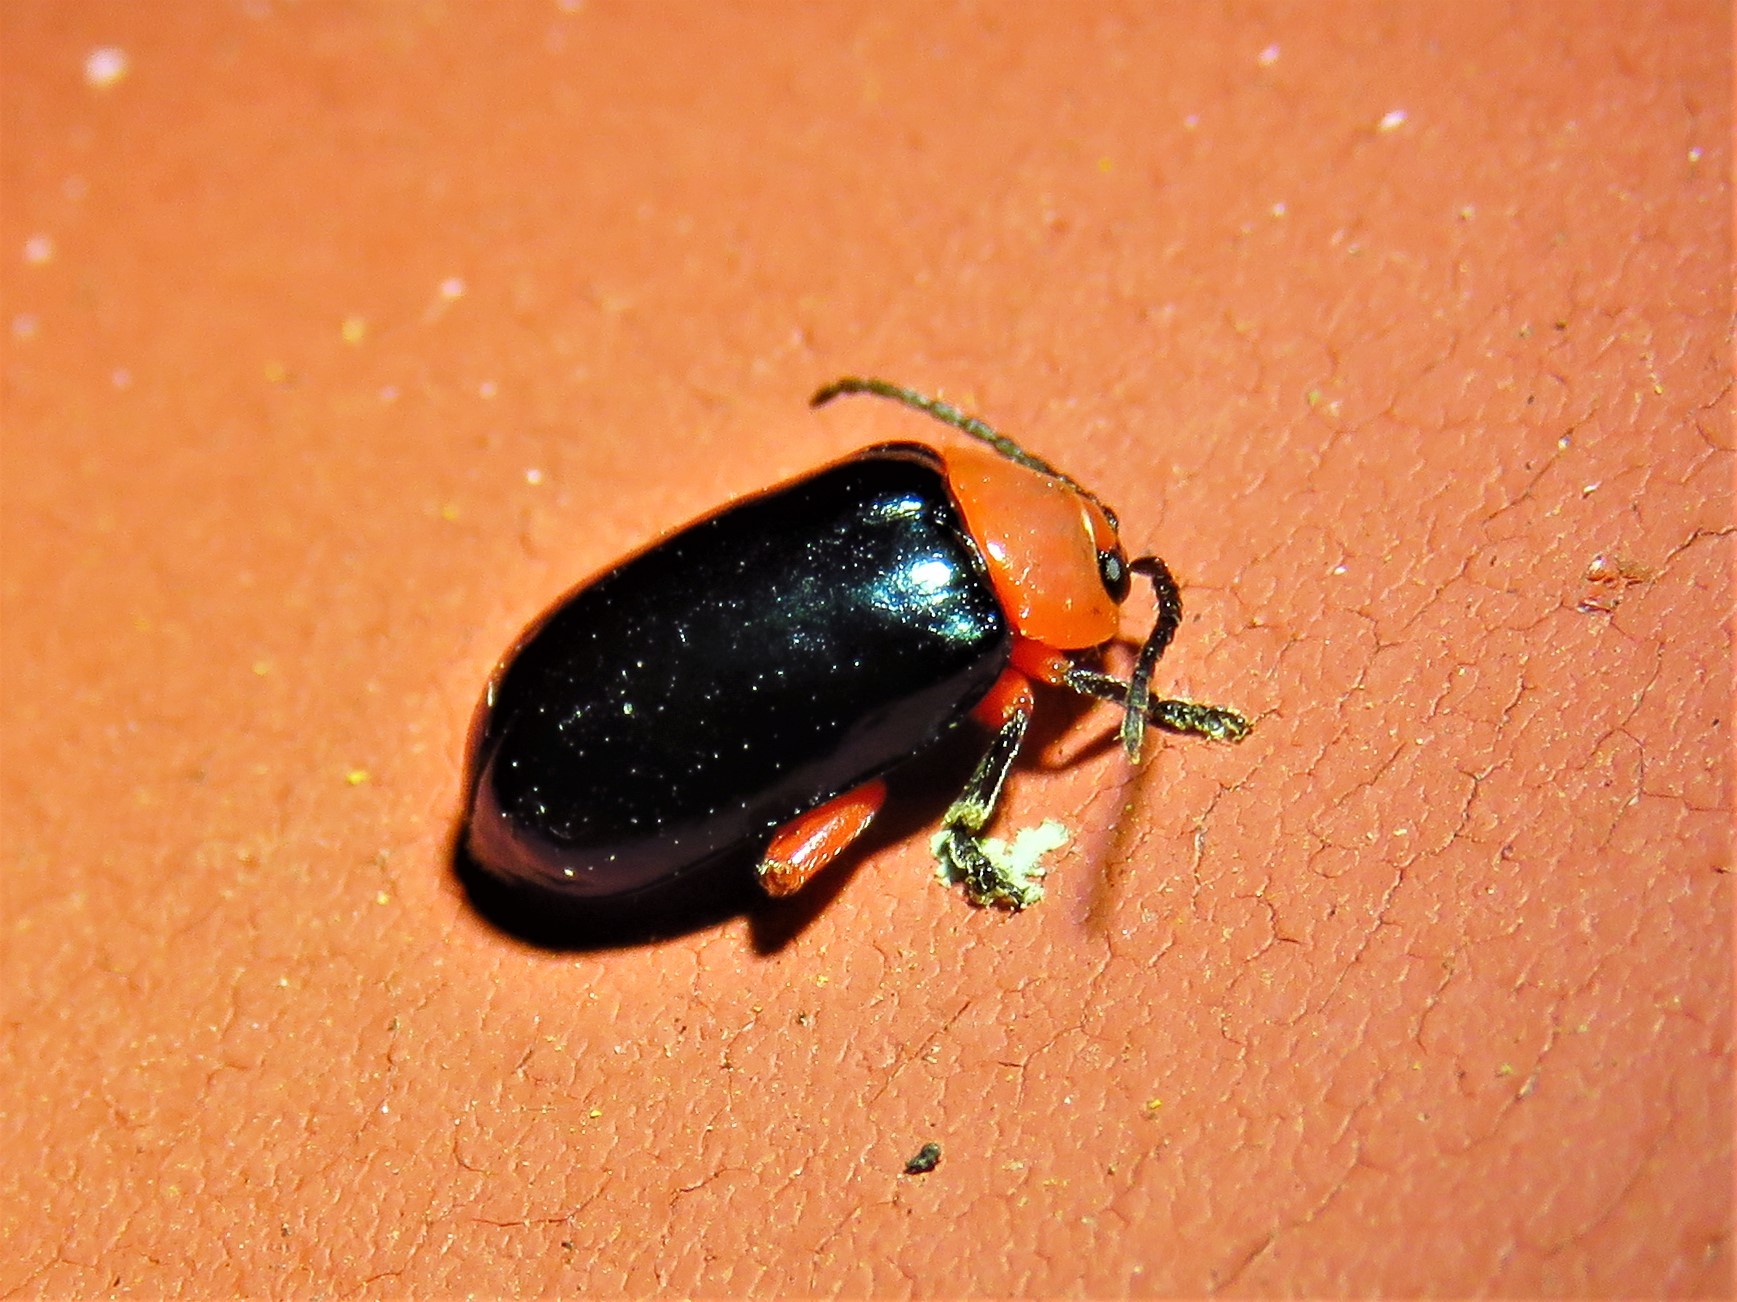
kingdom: Animalia
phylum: Arthropoda
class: Insecta
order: Coleoptera
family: Chrysomelidae
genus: Asphaera
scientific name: Asphaera lustrans
